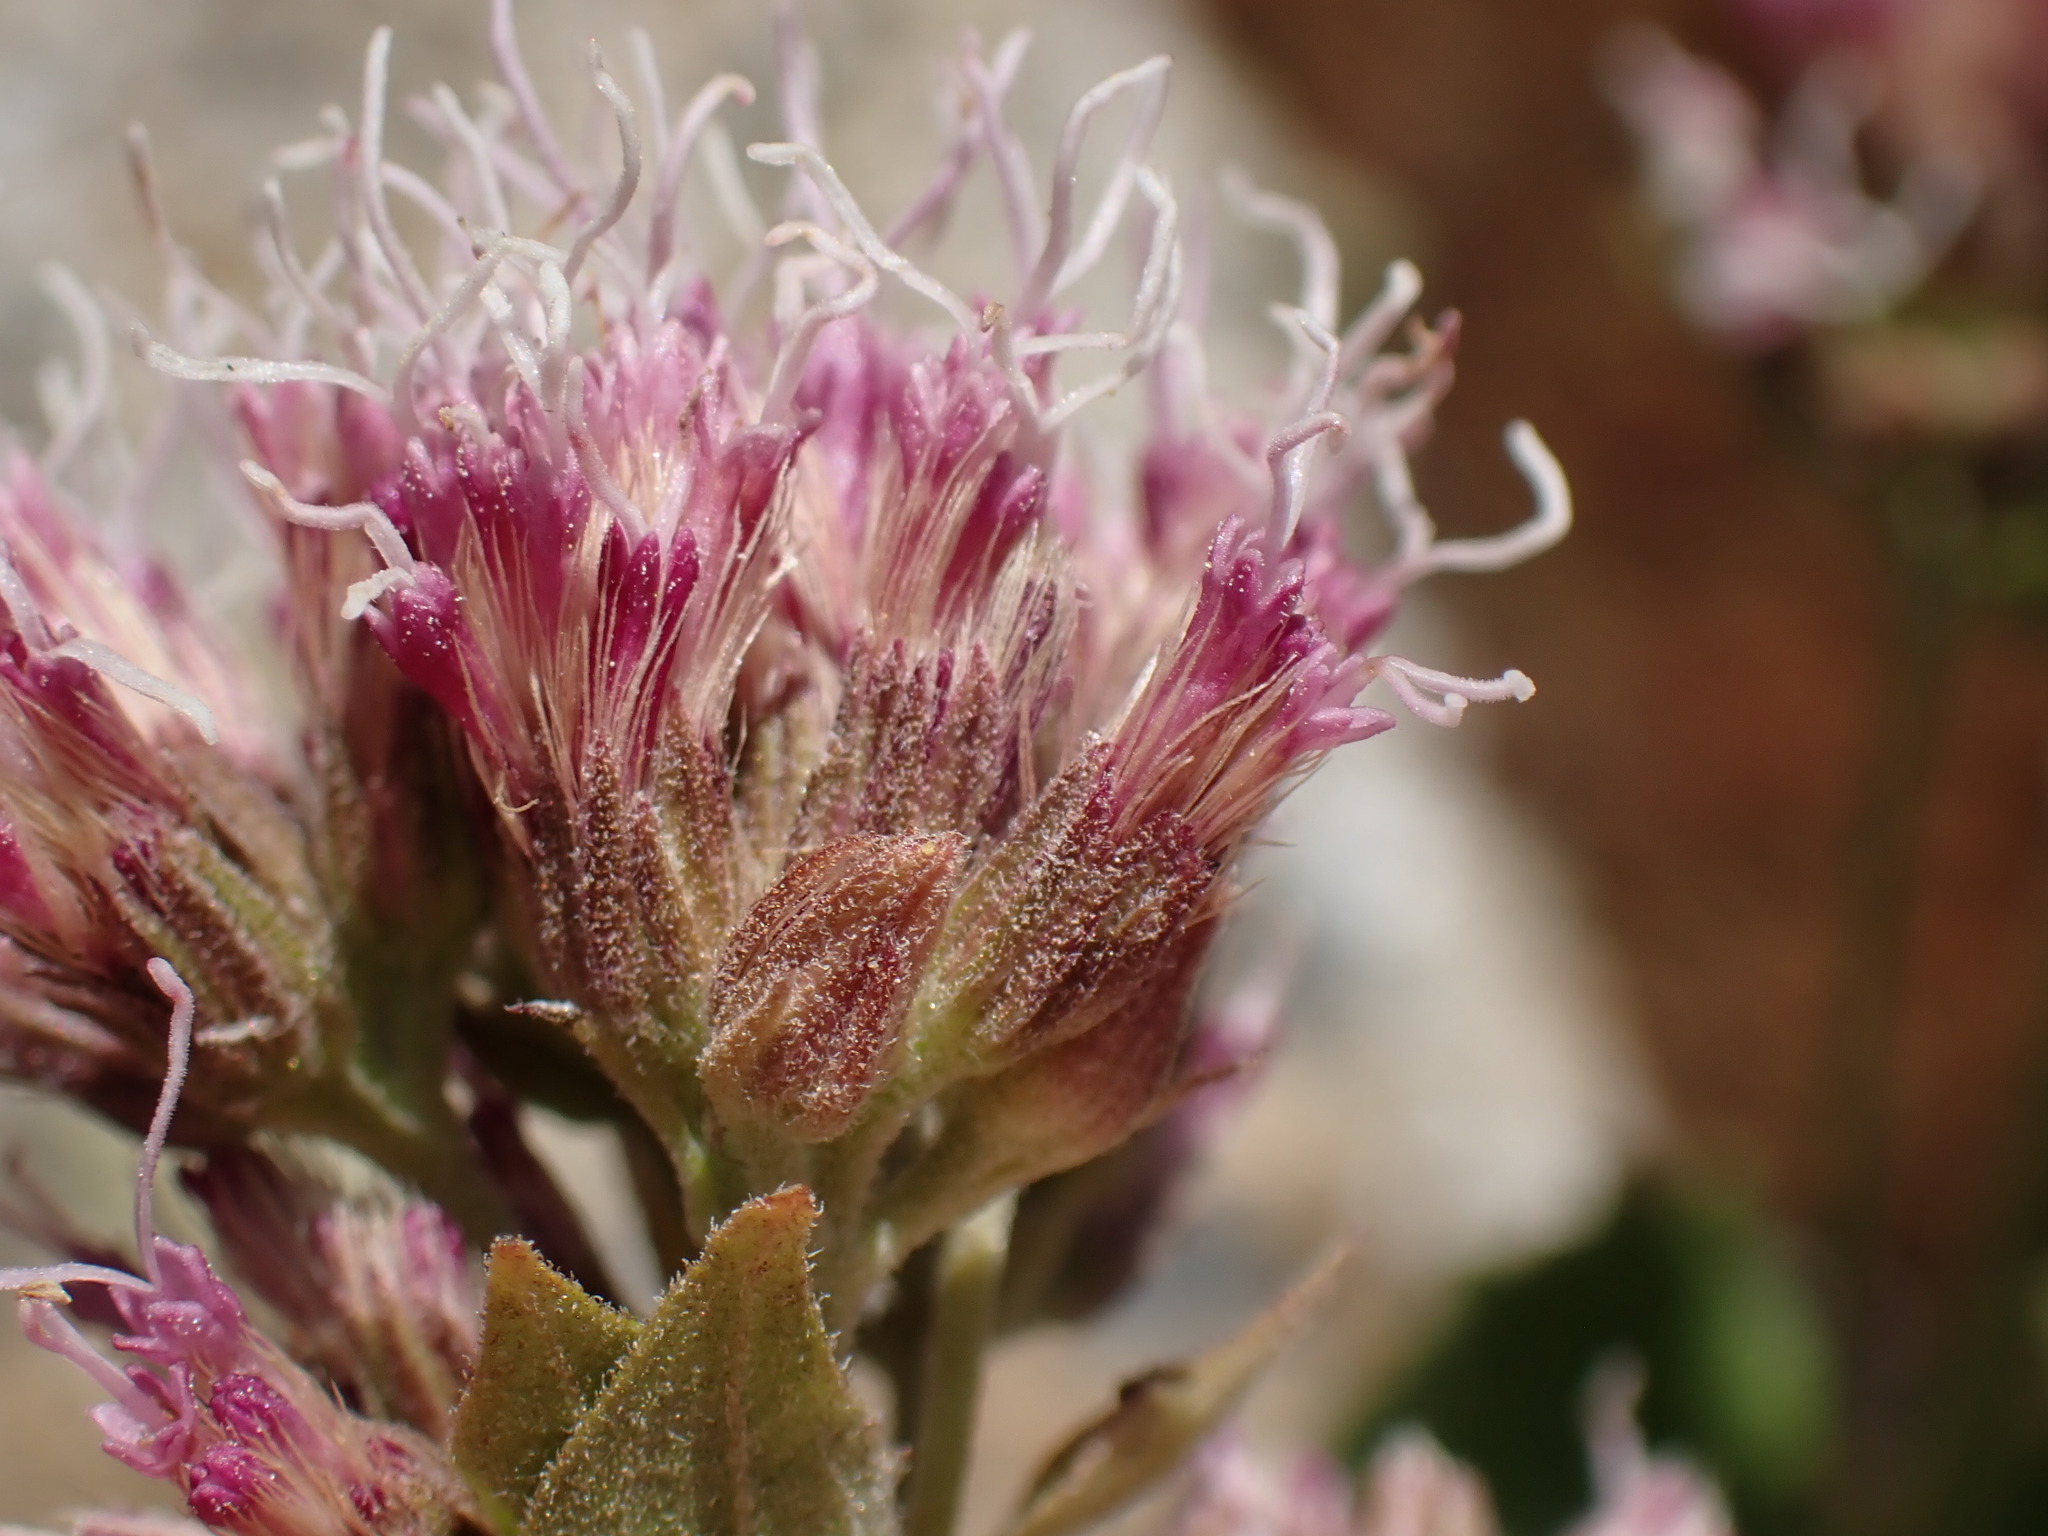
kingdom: Plantae
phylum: Tracheophyta
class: Magnoliopsida
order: Asterales
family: Asteraceae
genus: Ageratina
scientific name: Ageratina occidentalis
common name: Western snakeroot
